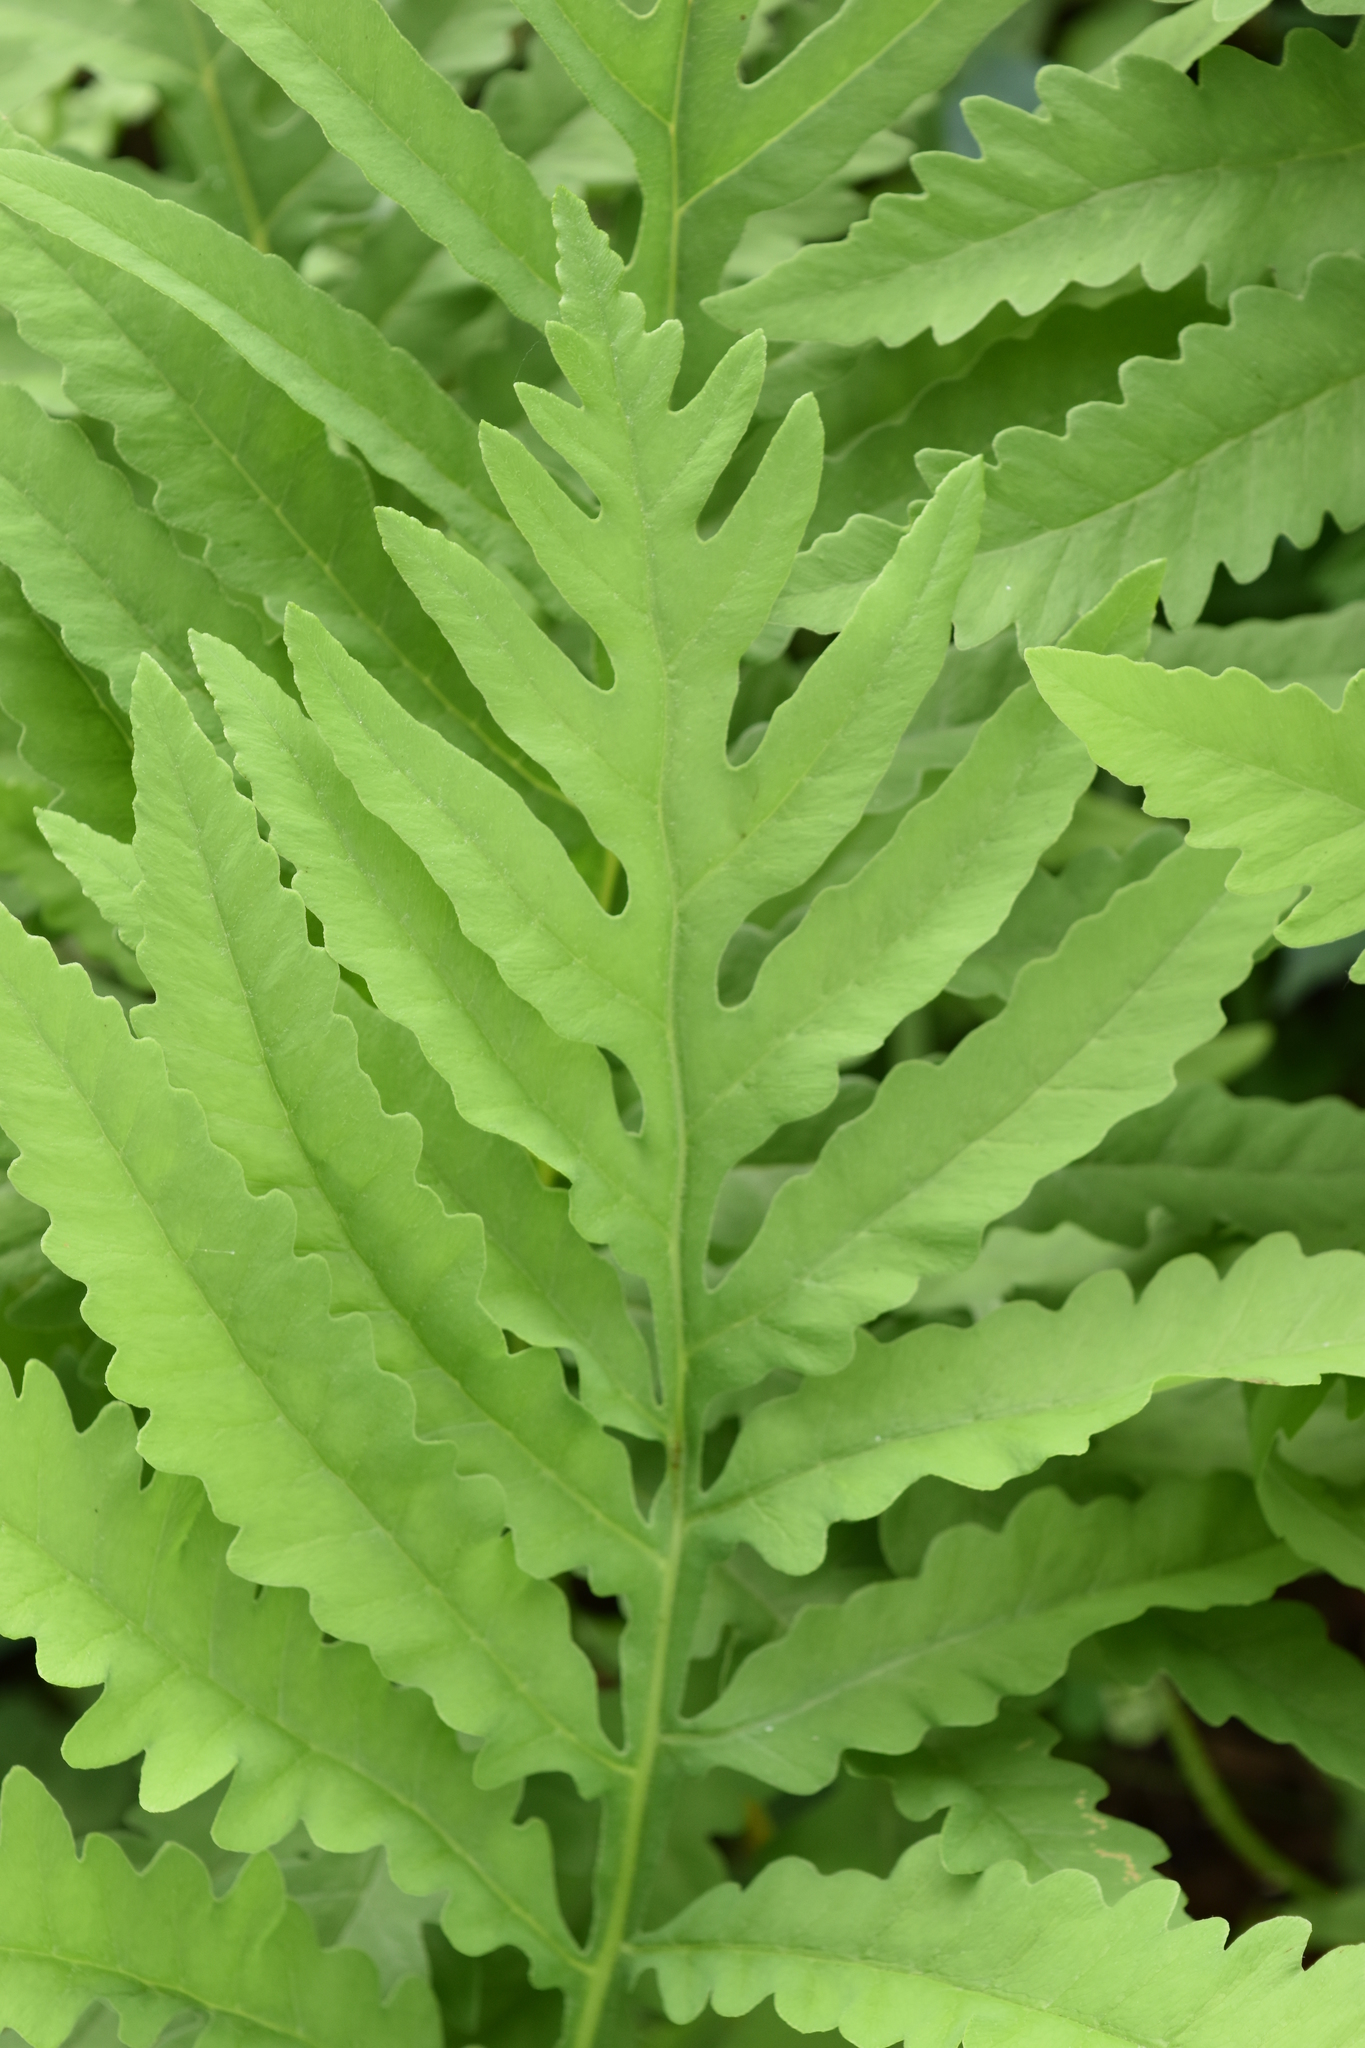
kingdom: Plantae
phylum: Tracheophyta
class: Polypodiopsida
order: Polypodiales
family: Onocleaceae
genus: Onoclea
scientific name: Onoclea sensibilis
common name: Sensitive fern
